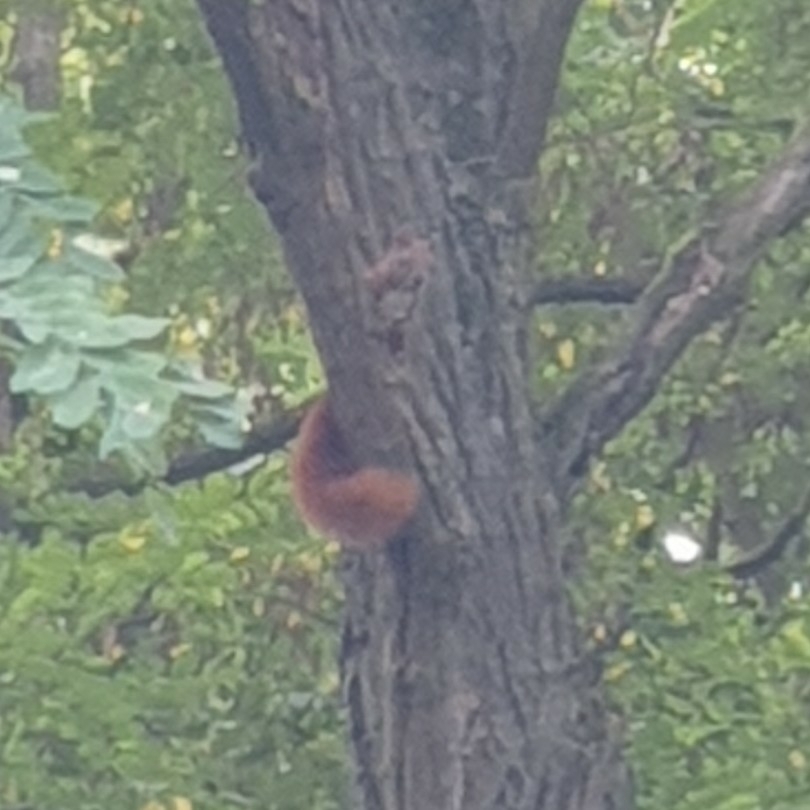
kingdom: Animalia
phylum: Chordata
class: Mammalia
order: Rodentia
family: Sciuridae
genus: Sciurus
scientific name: Sciurus vulgaris
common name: Eurasian red squirrel
